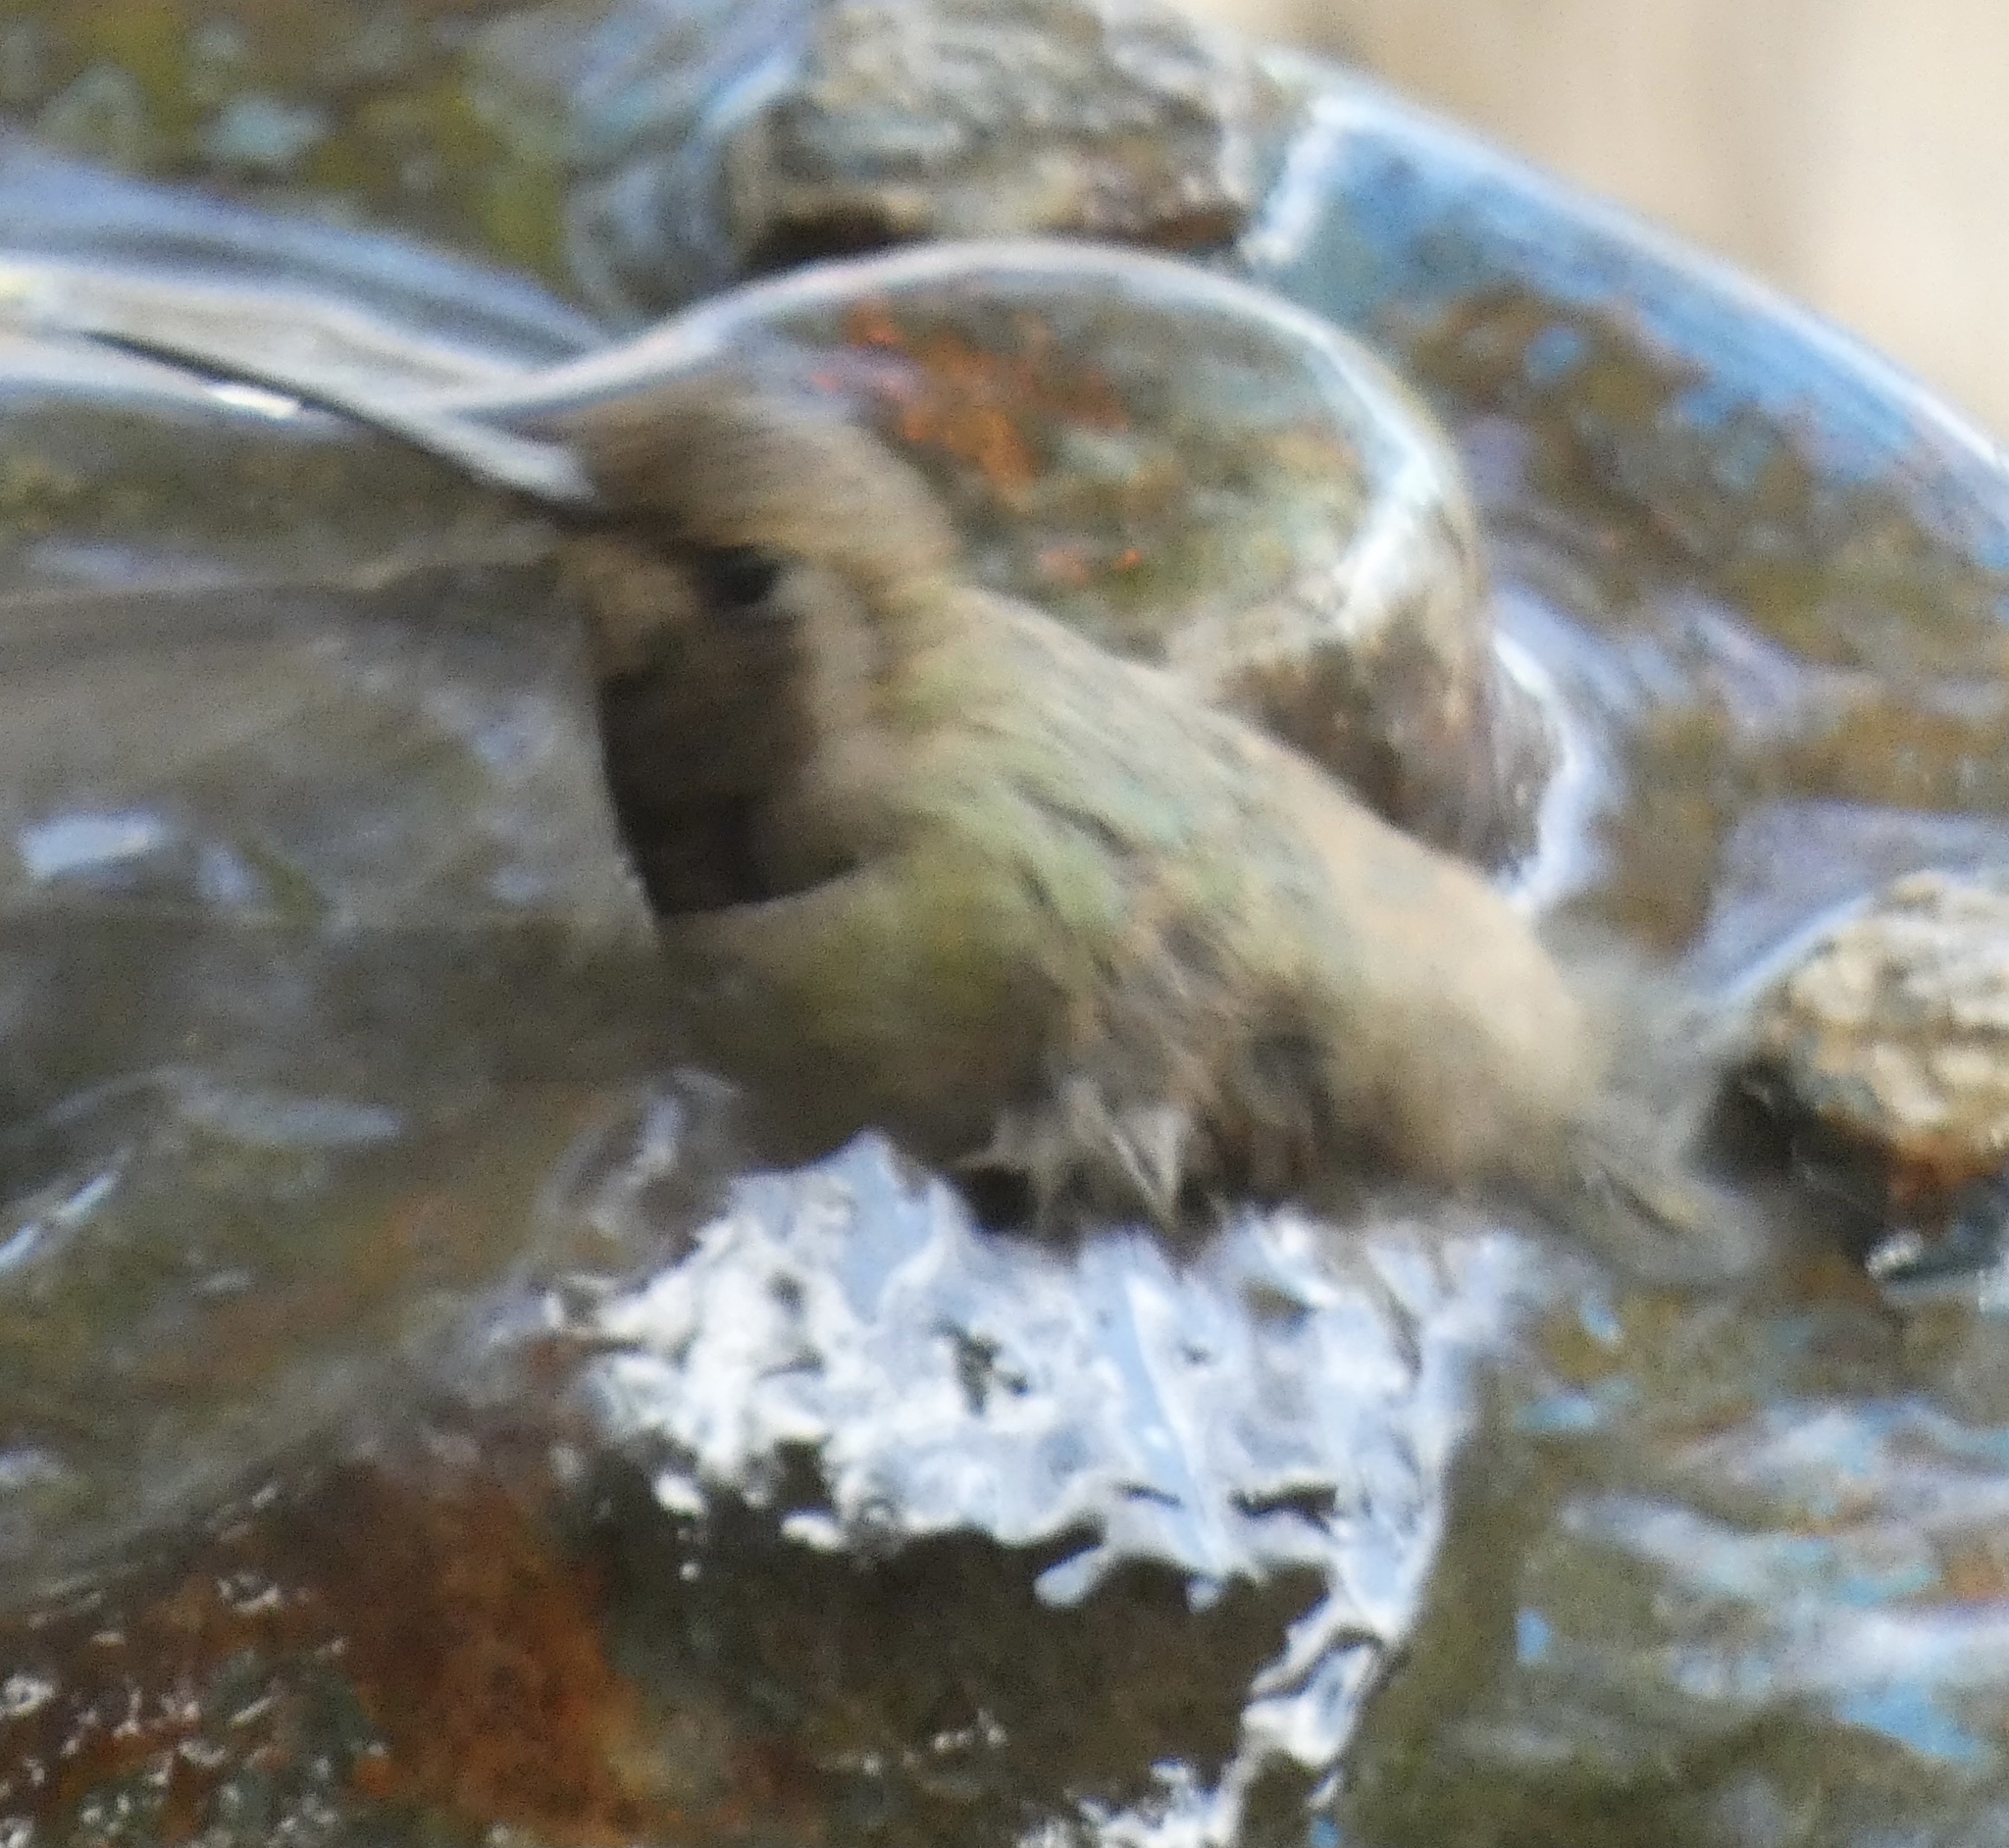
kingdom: Animalia
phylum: Chordata
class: Aves
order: Apodiformes
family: Trochilidae
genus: Phaeoptila
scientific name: Phaeoptila sordida
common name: Dusky hummingbird
